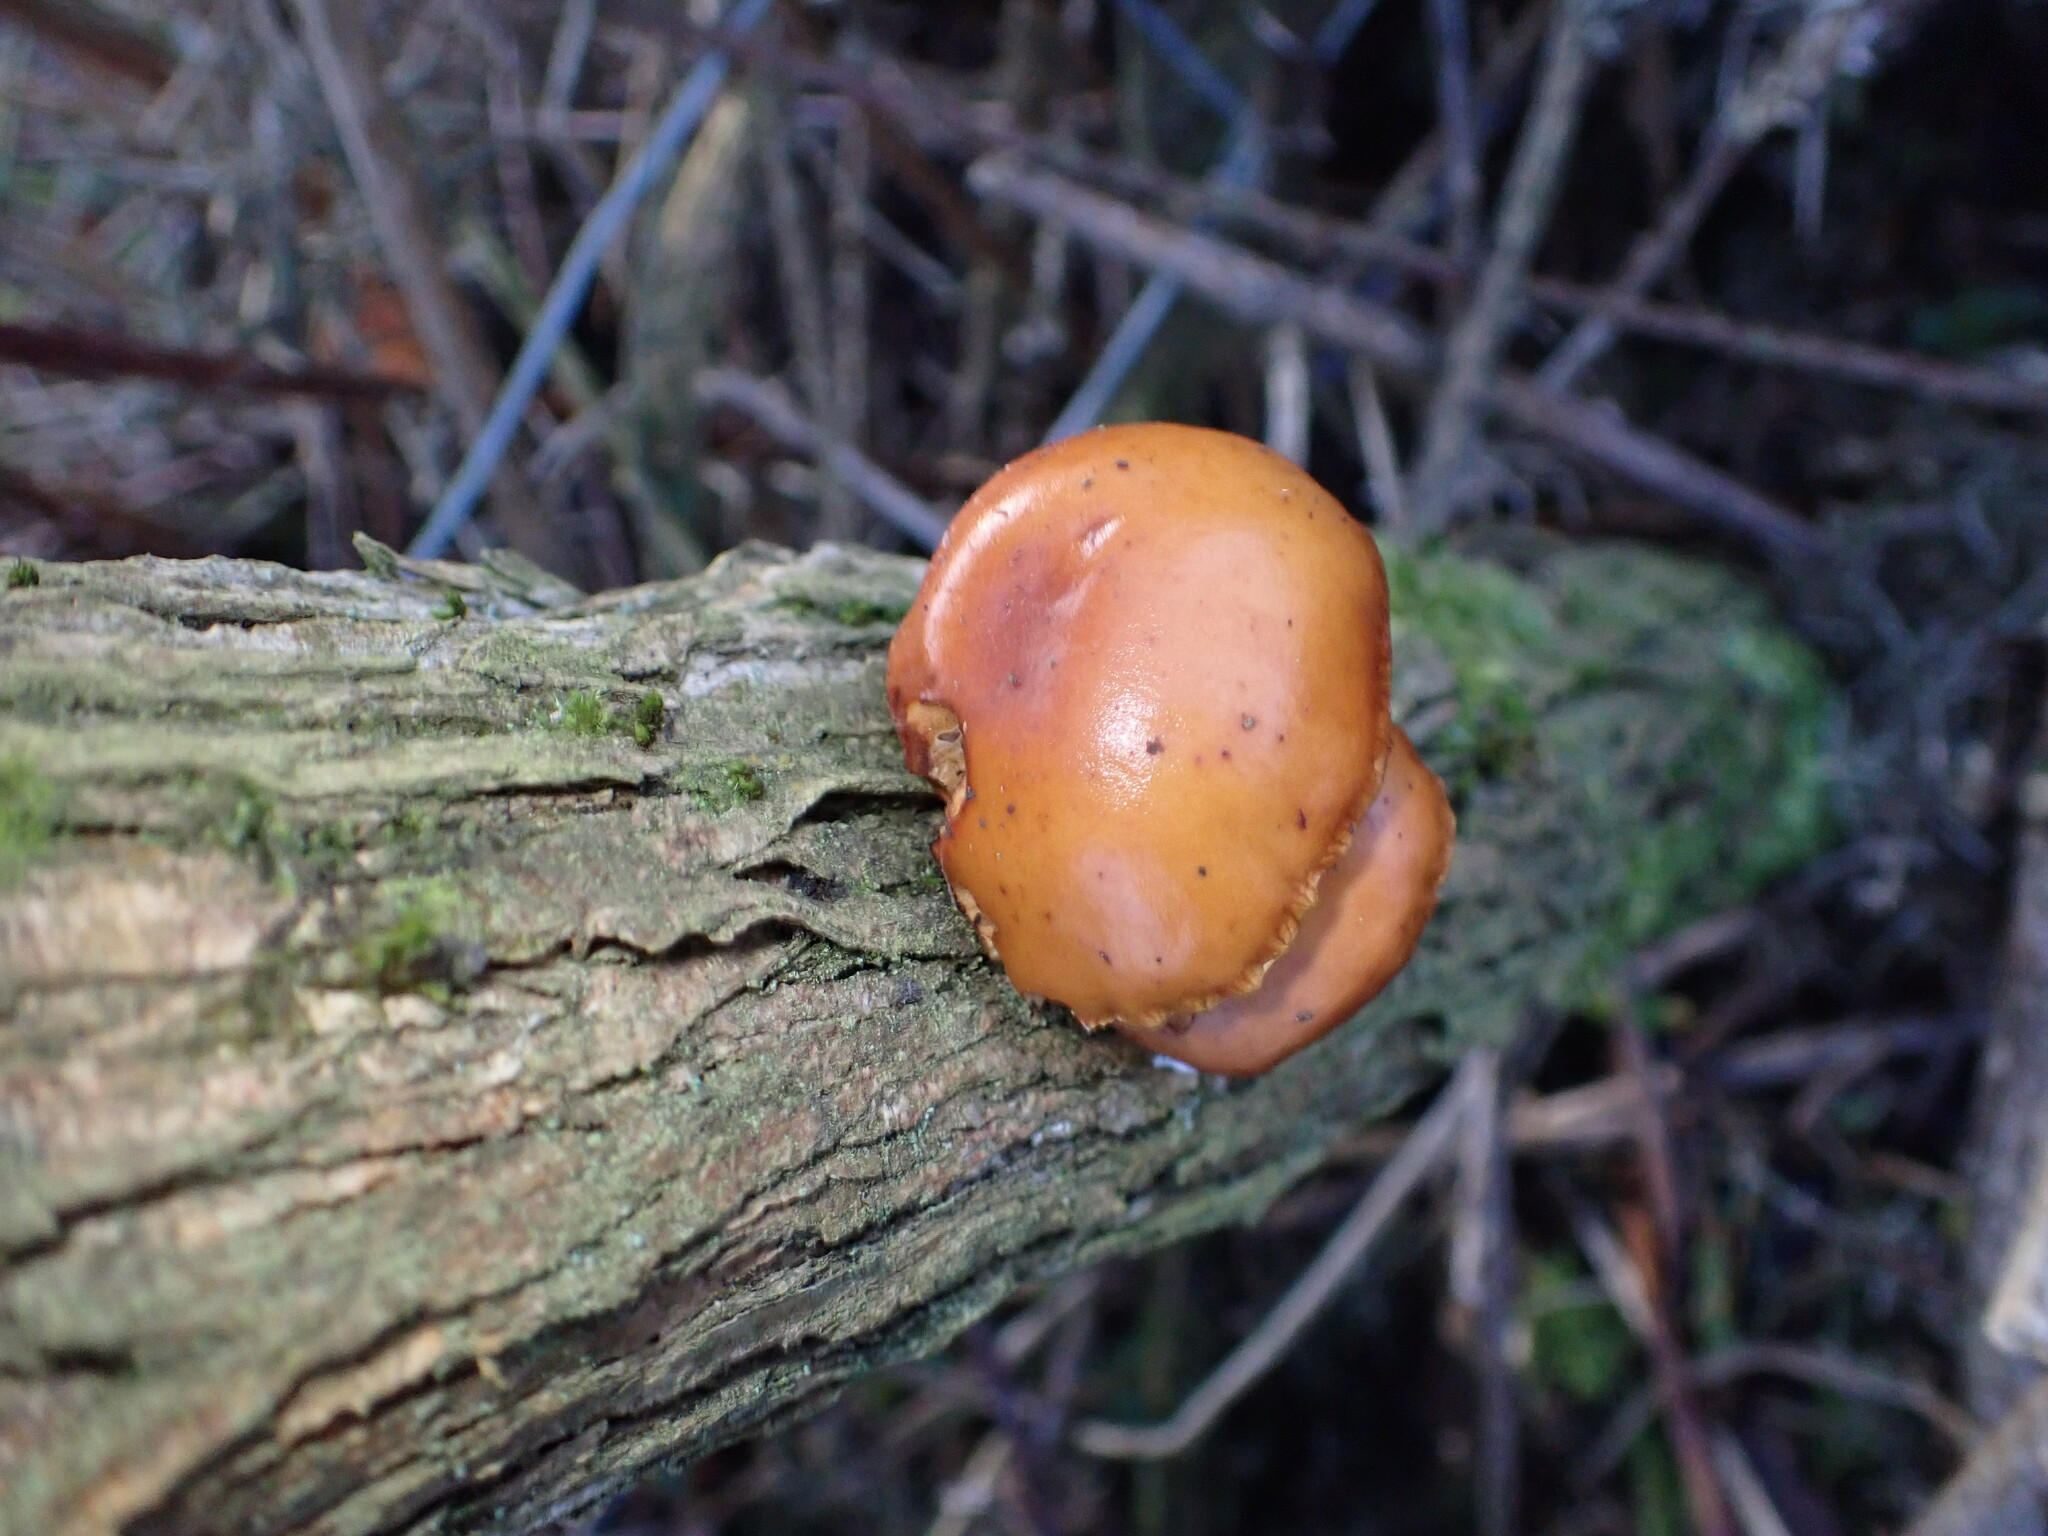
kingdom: Fungi
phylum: Basidiomycota
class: Agaricomycetes
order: Agaricales
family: Physalacriaceae
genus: Flammulina
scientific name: Flammulina
